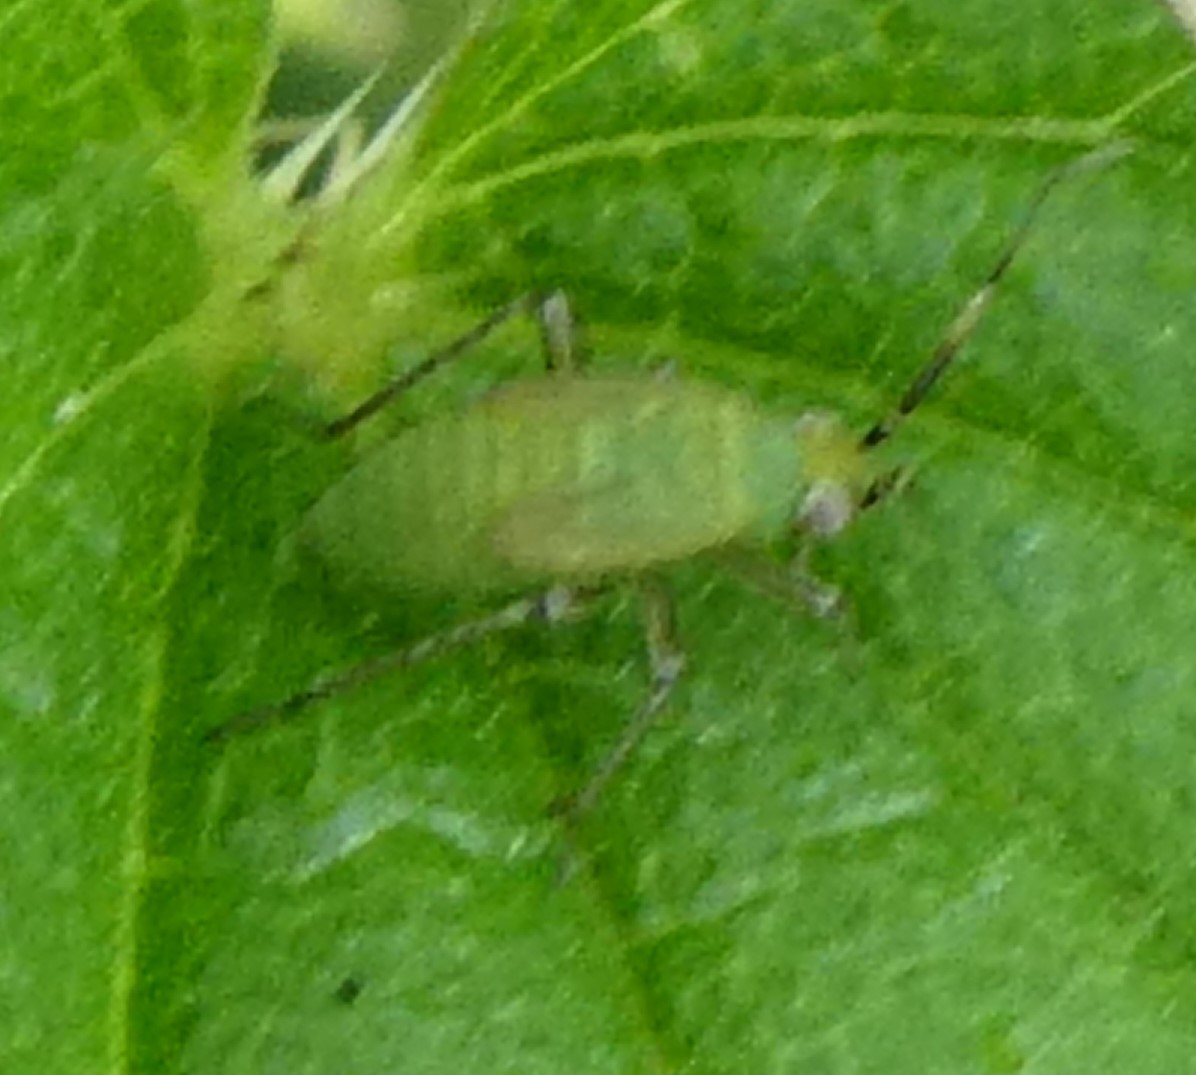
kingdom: Animalia
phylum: Arthropoda
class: Insecta
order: Hemiptera
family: Miridae
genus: Plagiognathus
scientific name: Plagiognathus arbustorum
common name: Plant bug
